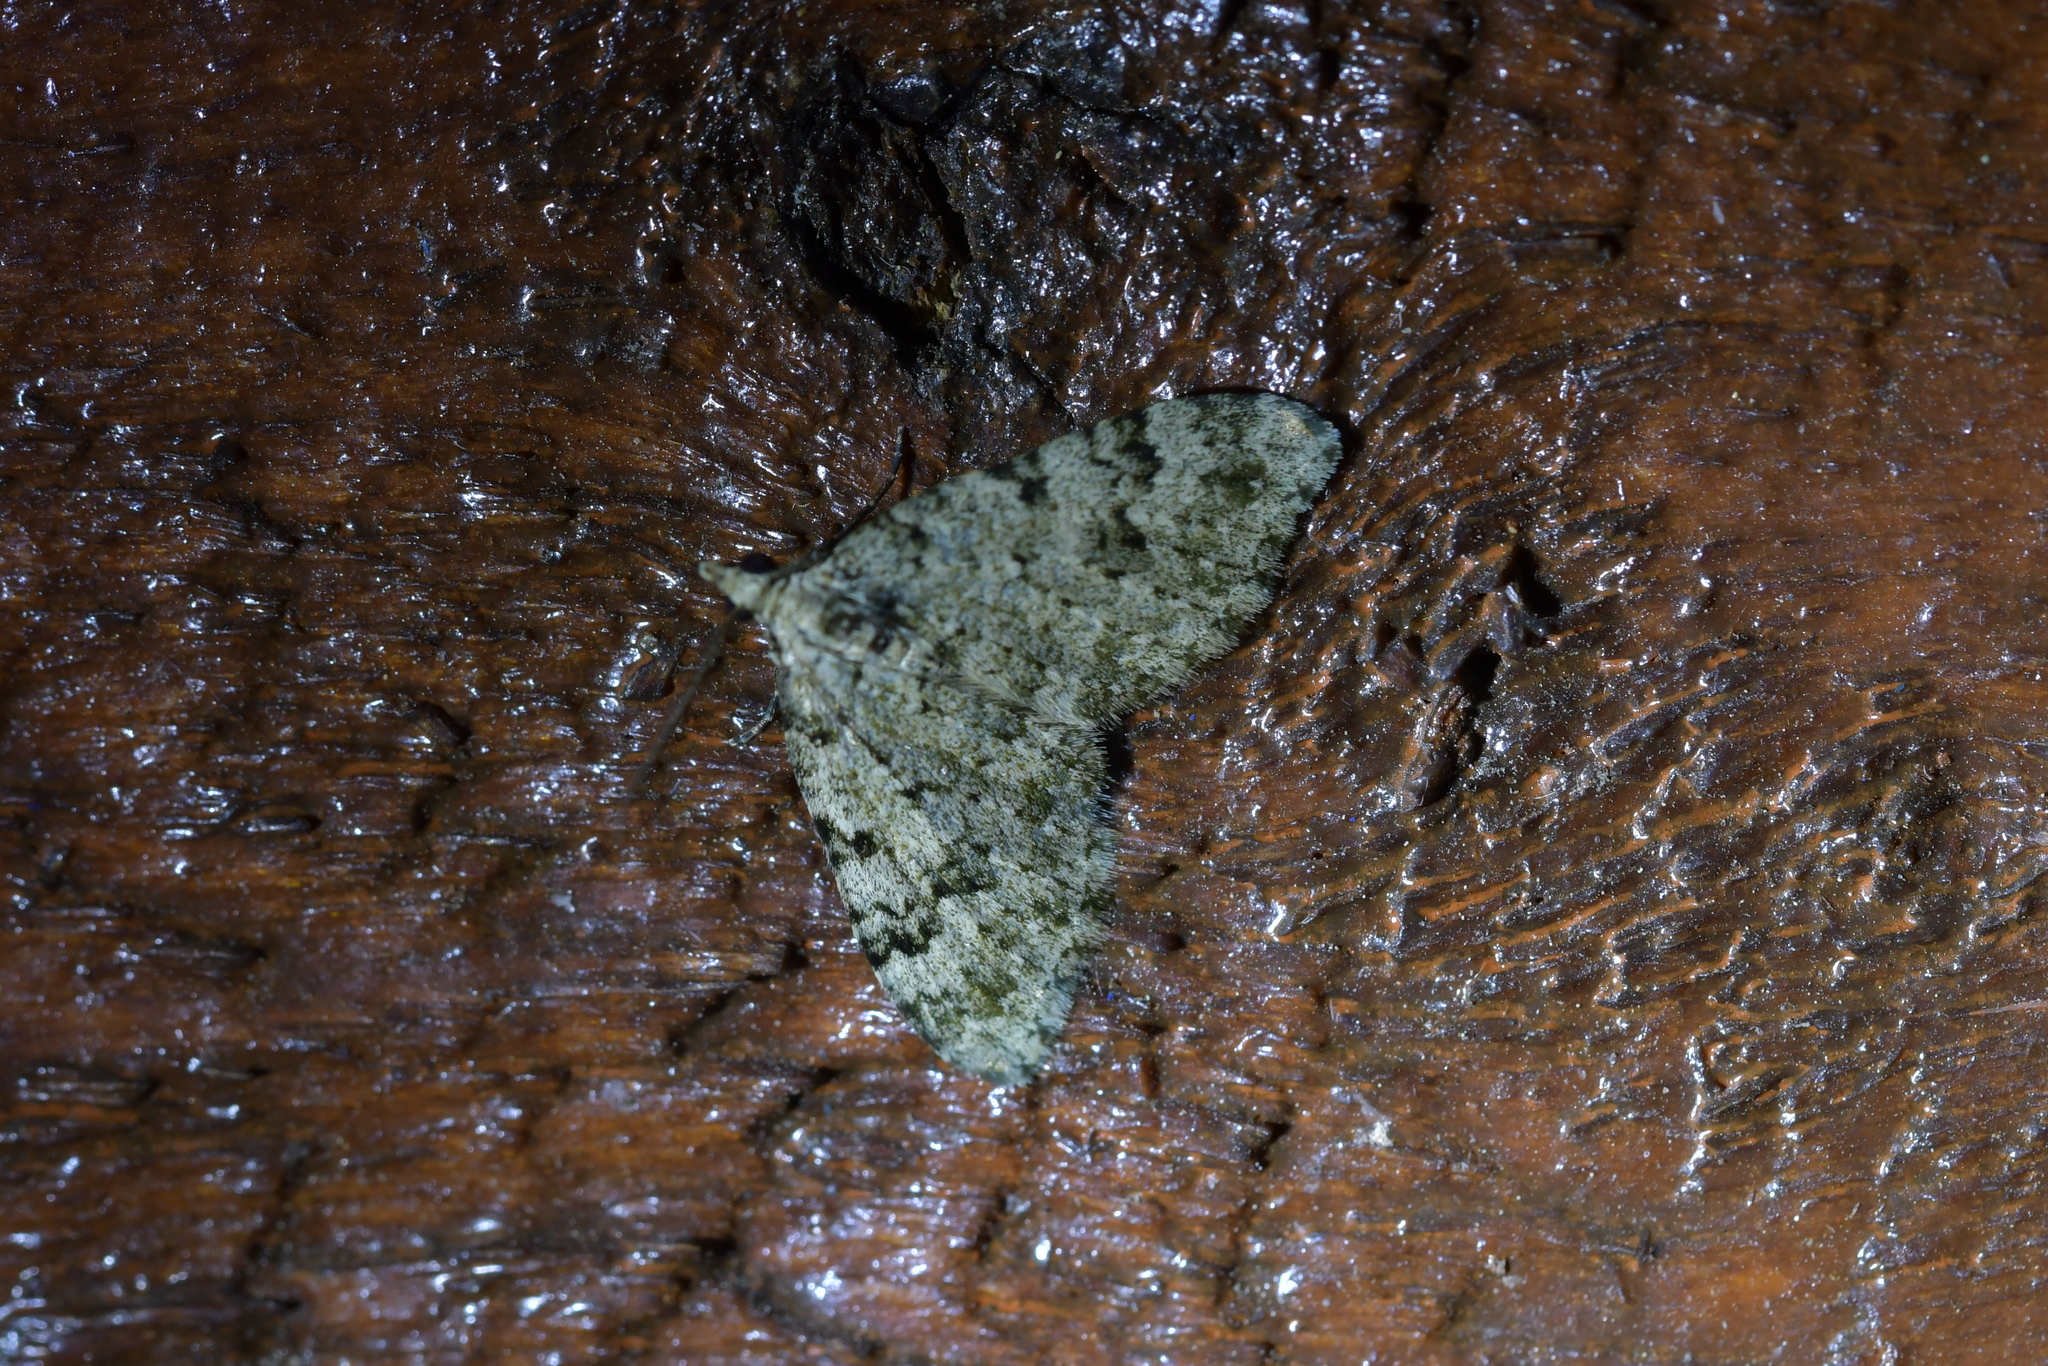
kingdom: Animalia
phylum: Arthropoda
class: Insecta
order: Lepidoptera
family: Geometridae
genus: Helastia
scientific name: Helastia cinerearia
